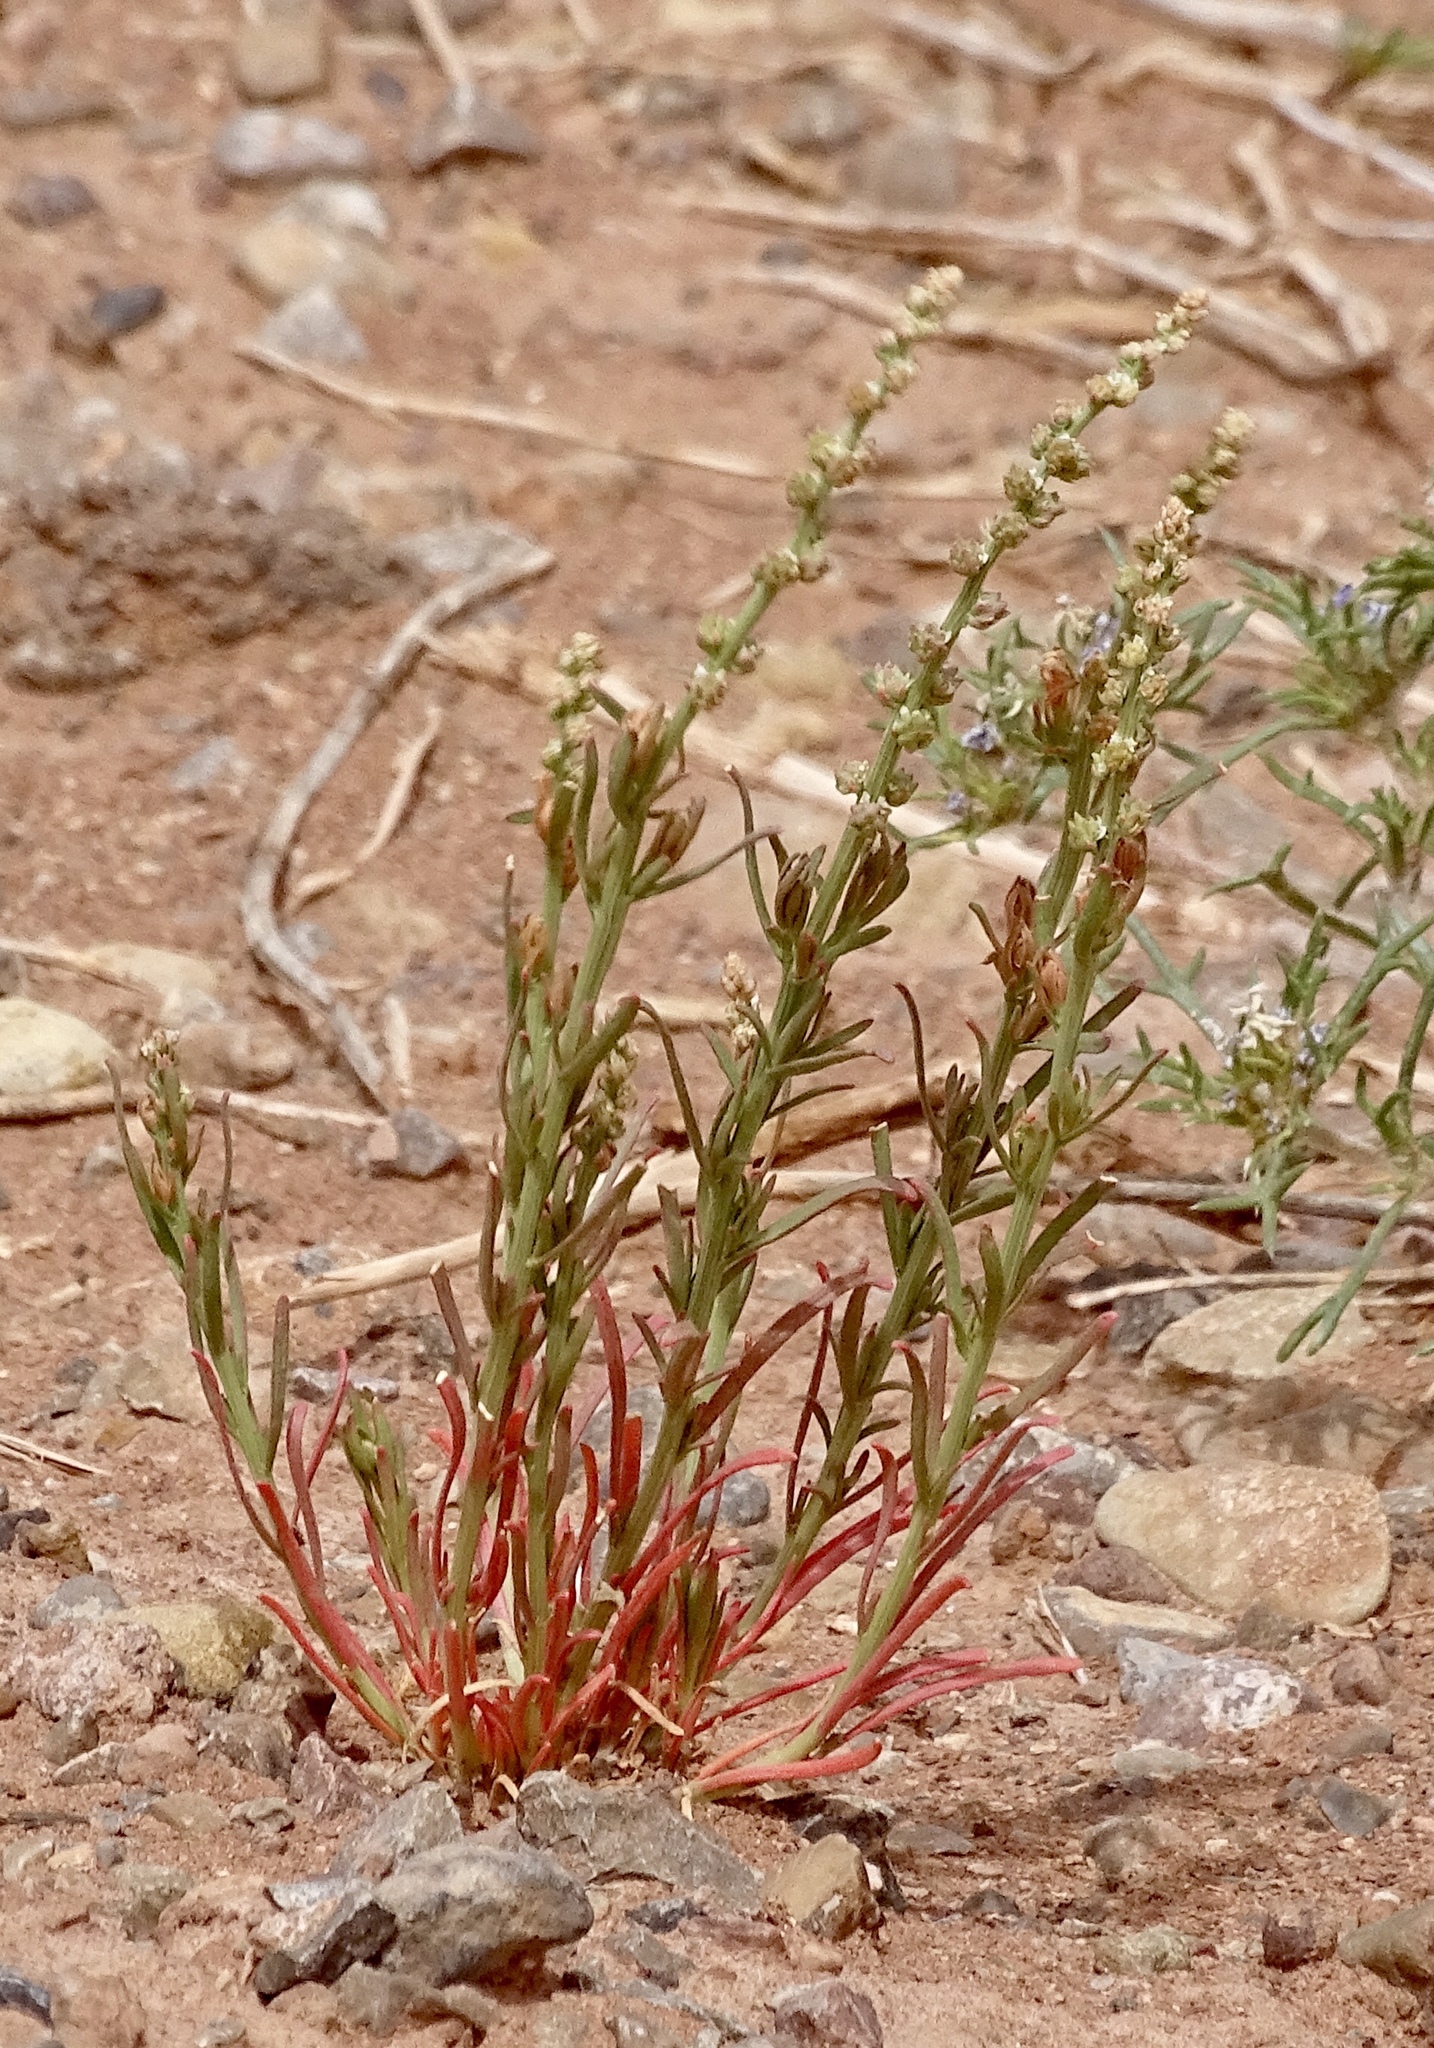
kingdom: Plantae
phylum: Tracheophyta
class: Magnoliopsida
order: Brassicales
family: Resedaceae
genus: Oligomeris
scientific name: Oligomeris linifolia
